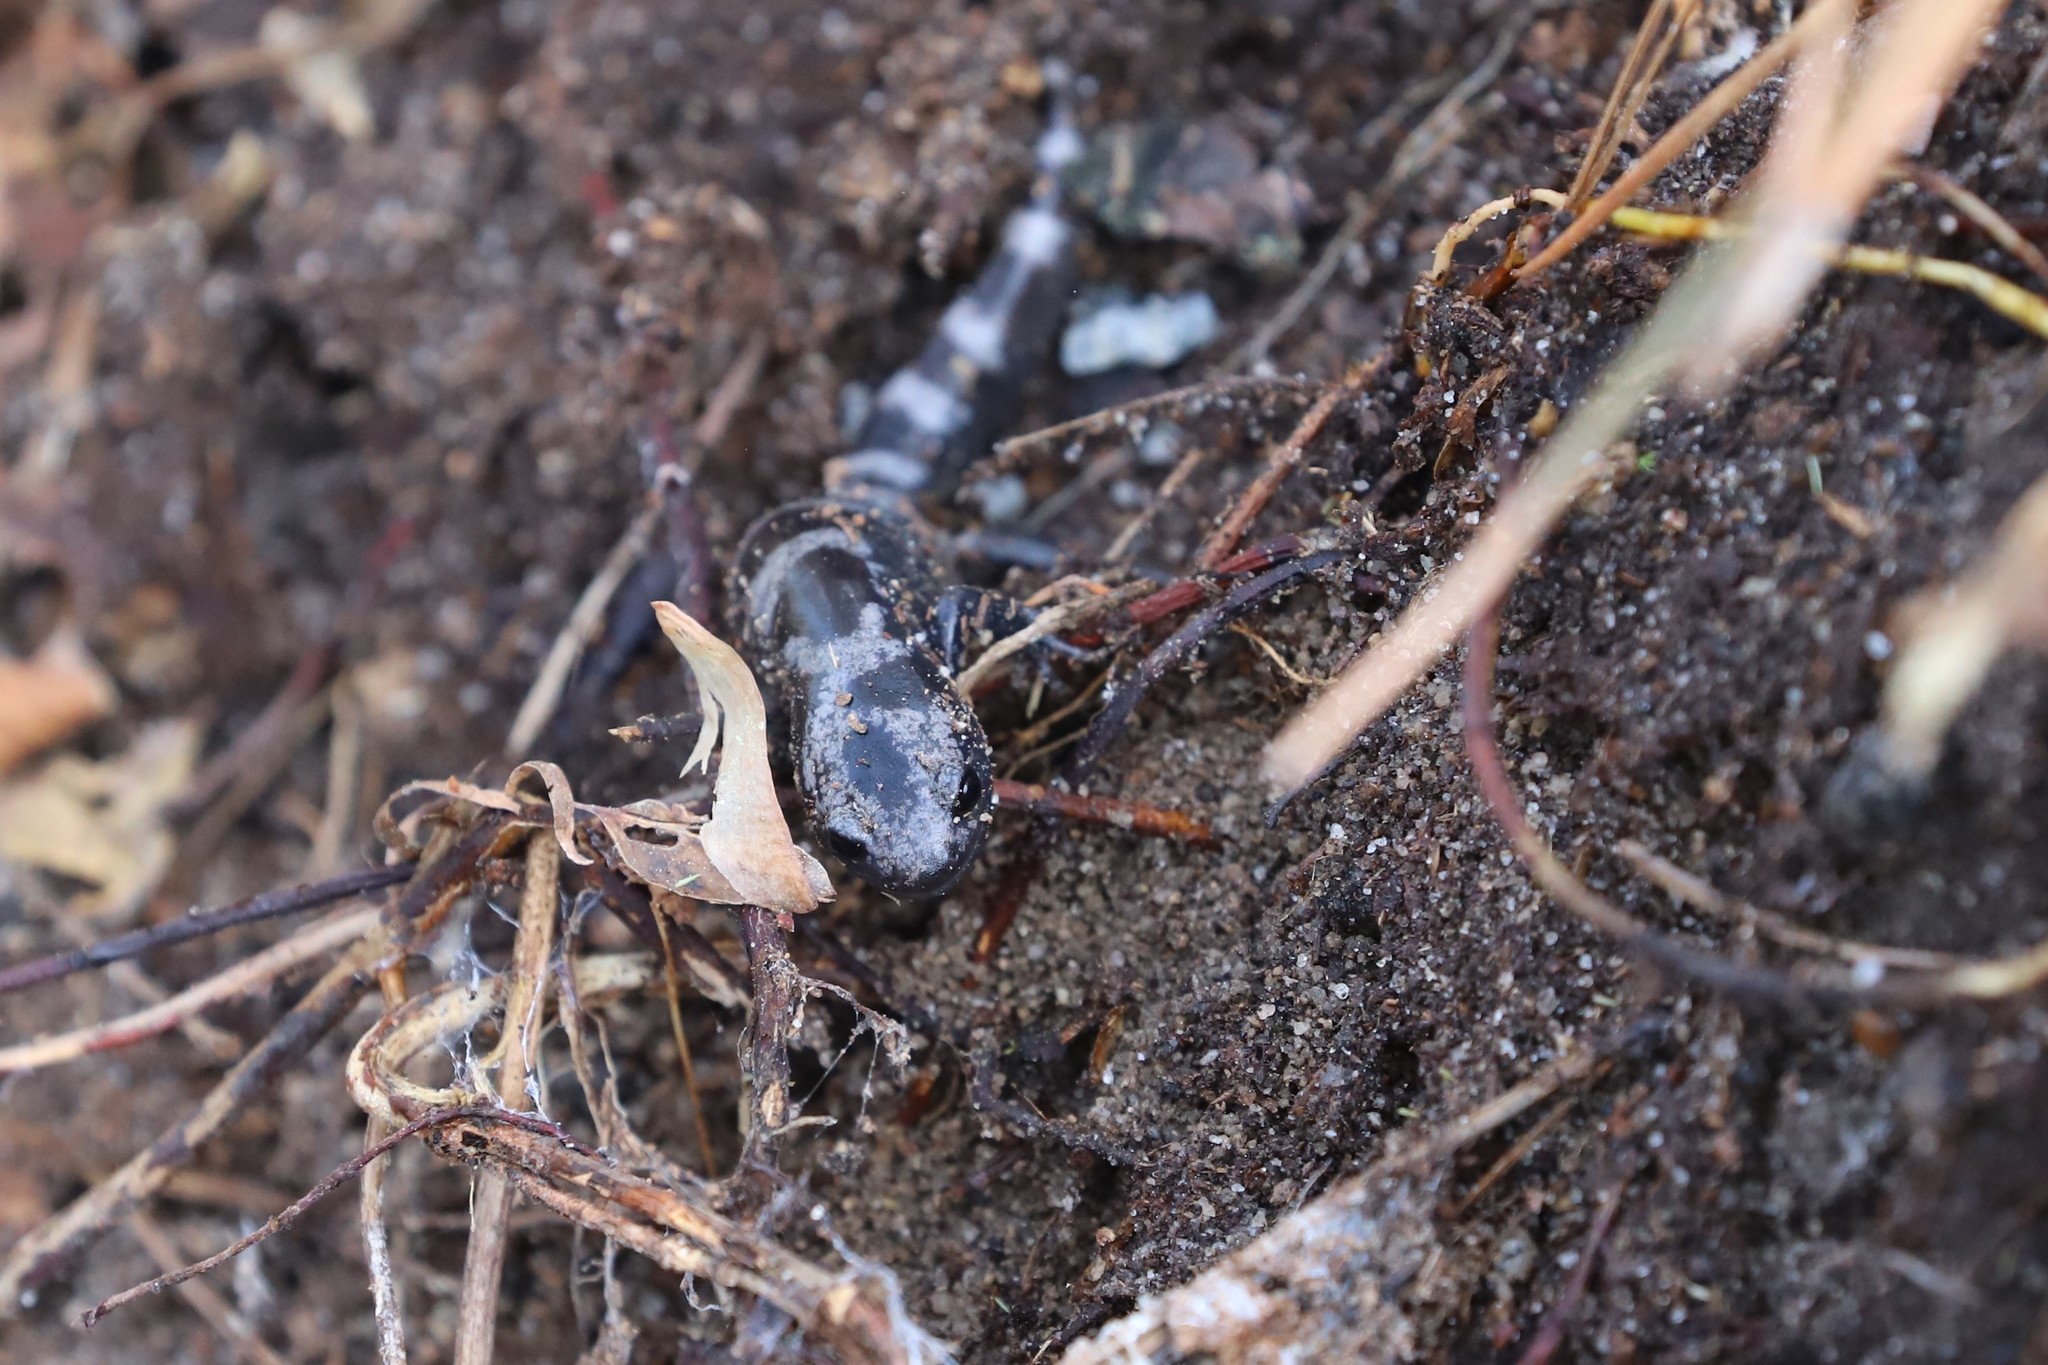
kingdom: Animalia
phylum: Chordata
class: Amphibia
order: Caudata
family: Ambystomatidae
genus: Ambystoma
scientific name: Ambystoma opacum
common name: Marbled salamander
